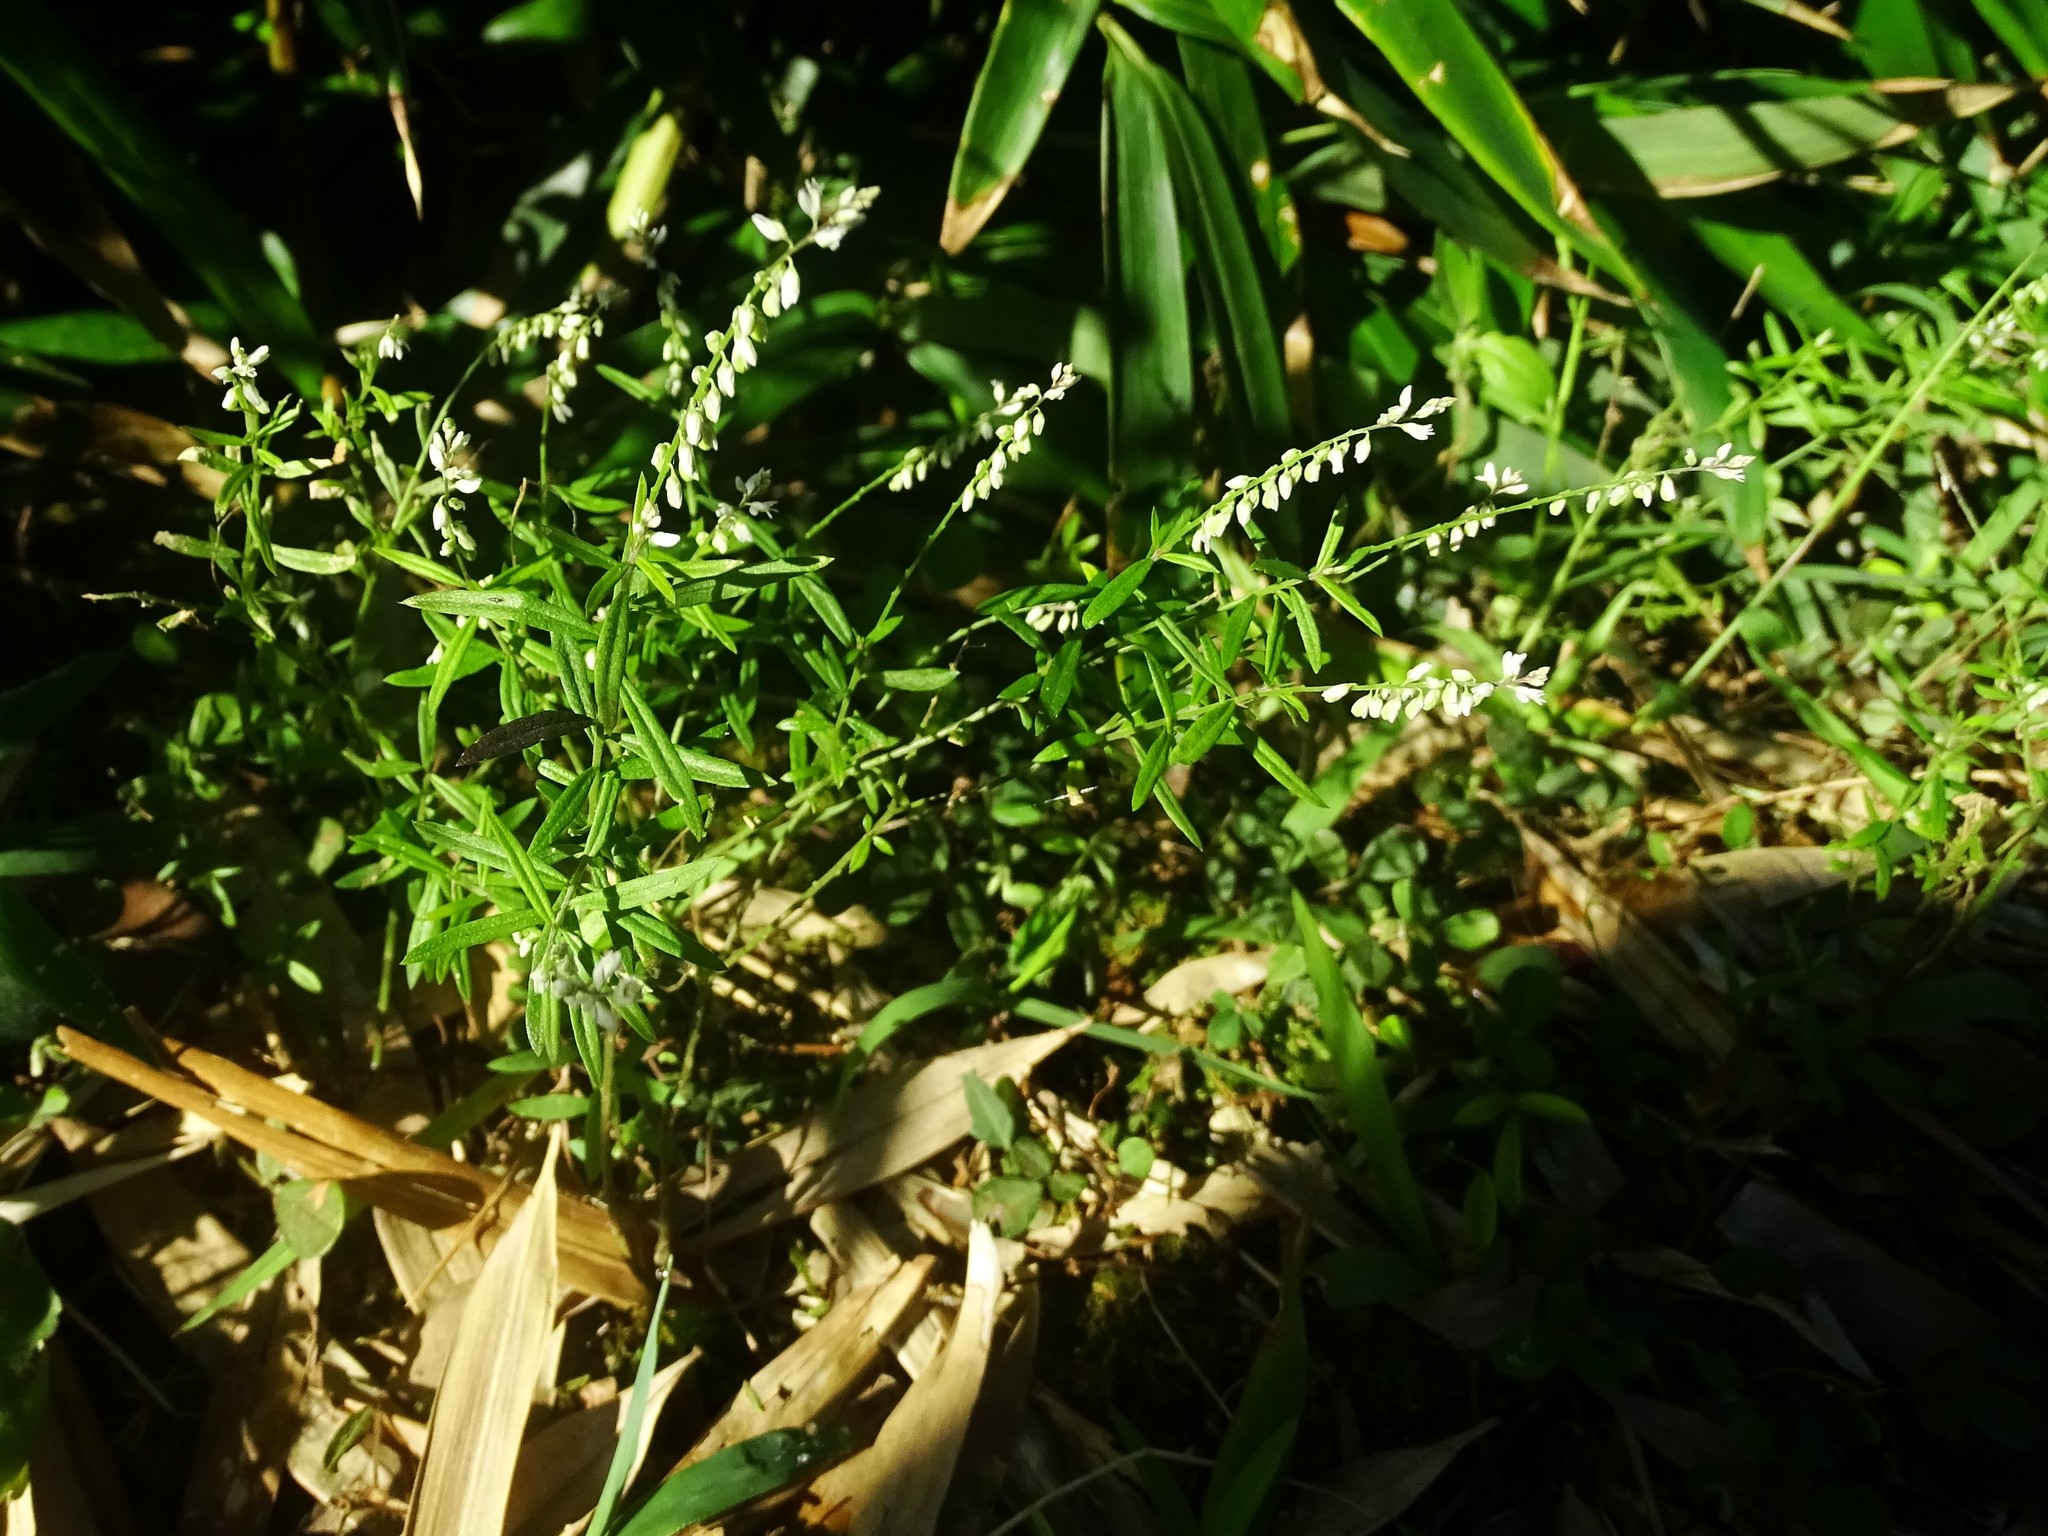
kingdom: Plantae
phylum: Tracheophyta
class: Magnoliopsida
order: Fabales
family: Polygalaceae
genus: Polygala
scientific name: Polygala paniculata
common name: Orosne
